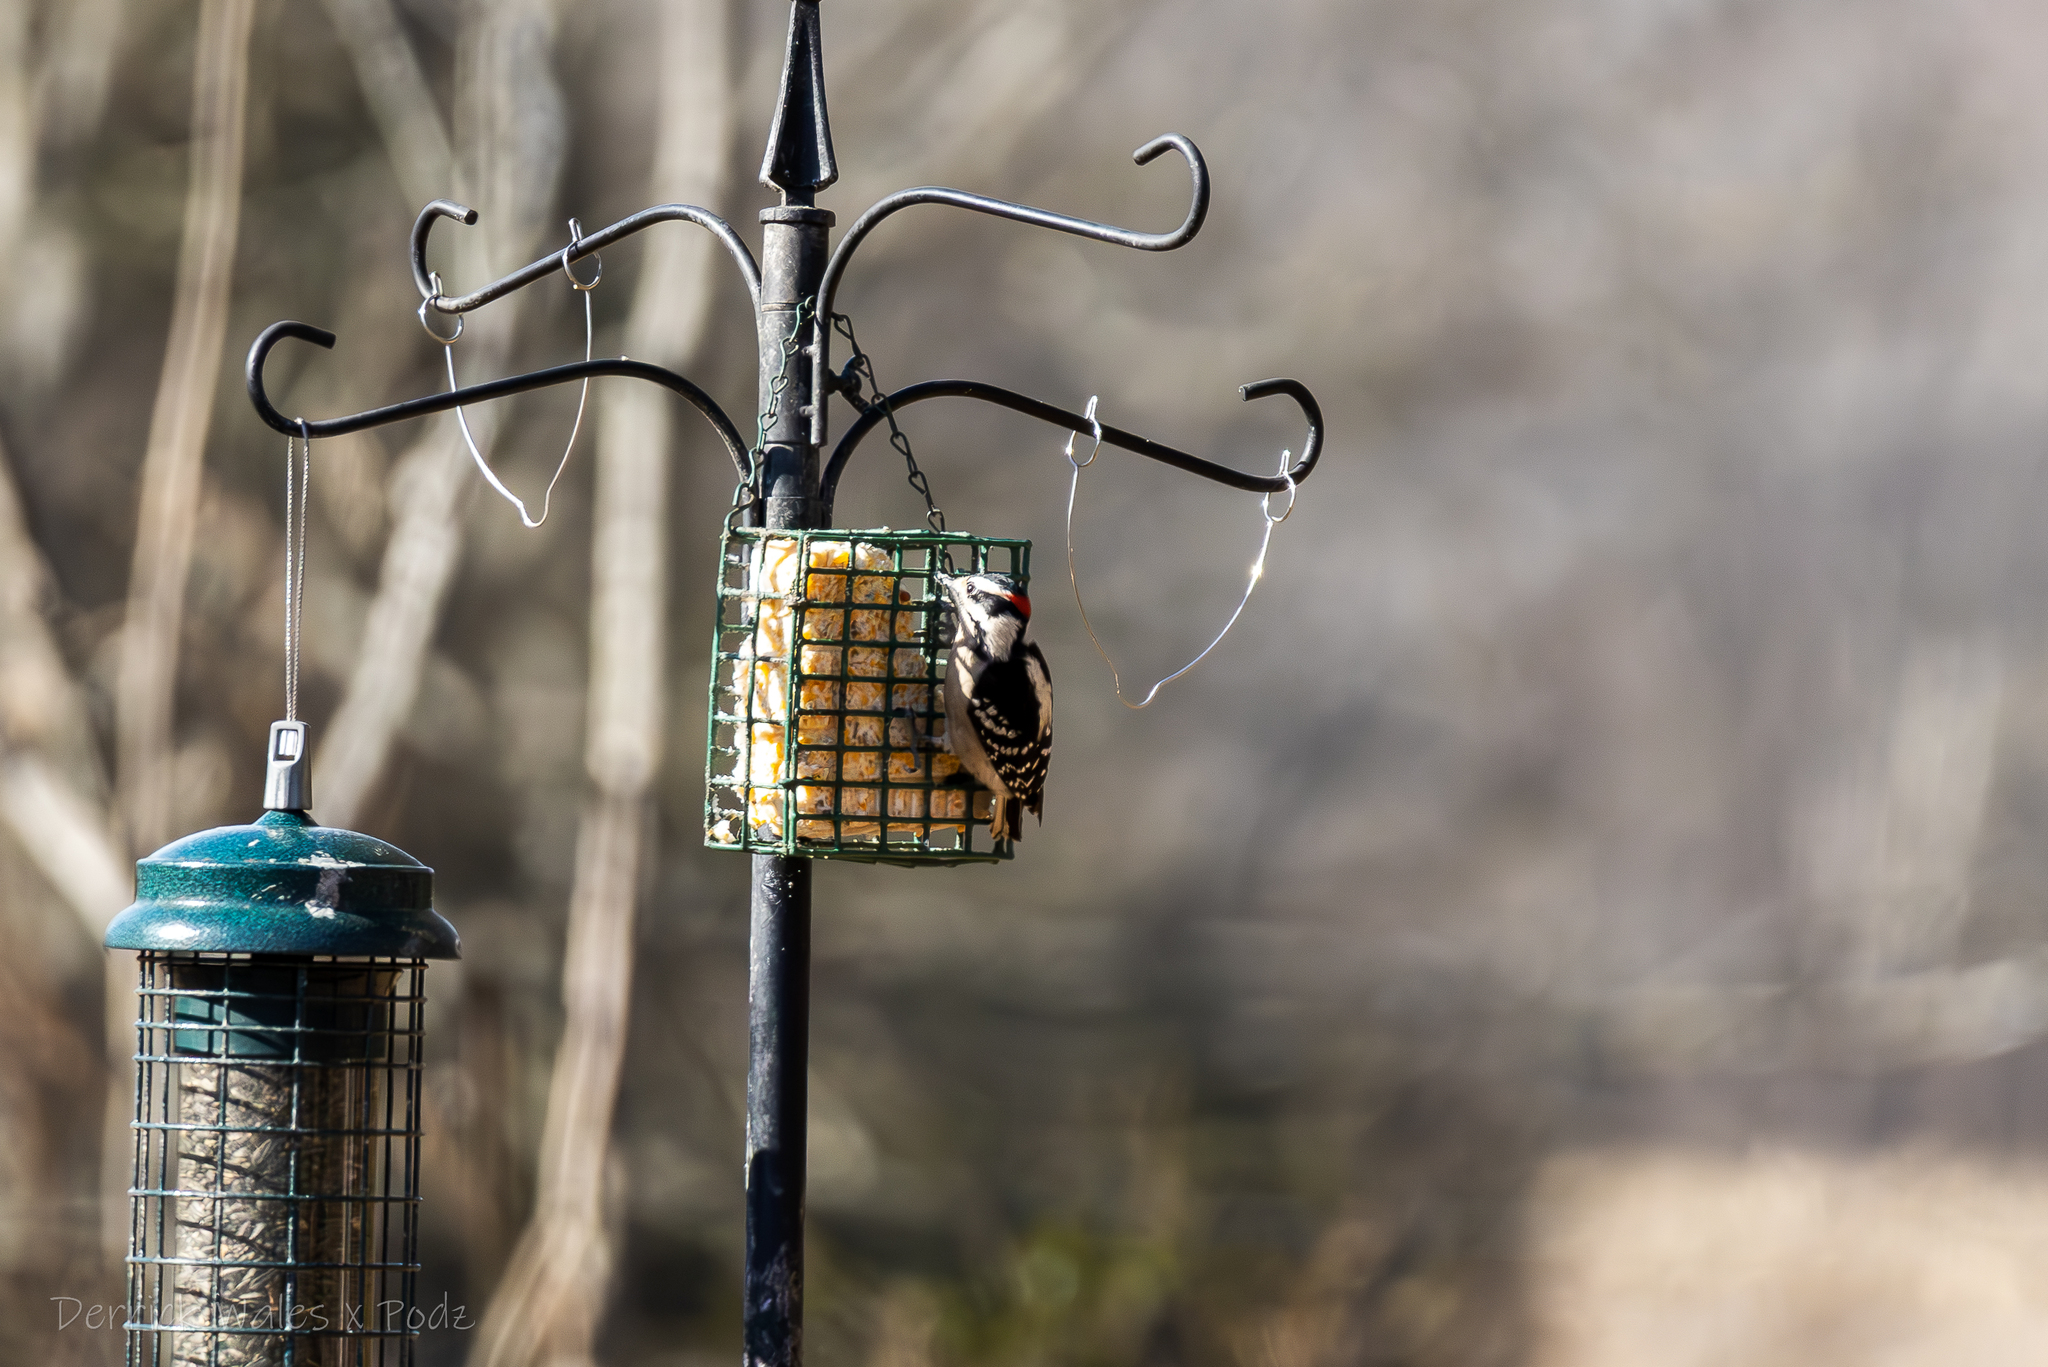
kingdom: Animalia
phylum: Chordata
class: Aves
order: Piciformes
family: Picidae
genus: Dryobates
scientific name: Dryobates pubescens
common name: Downy woodpecker
